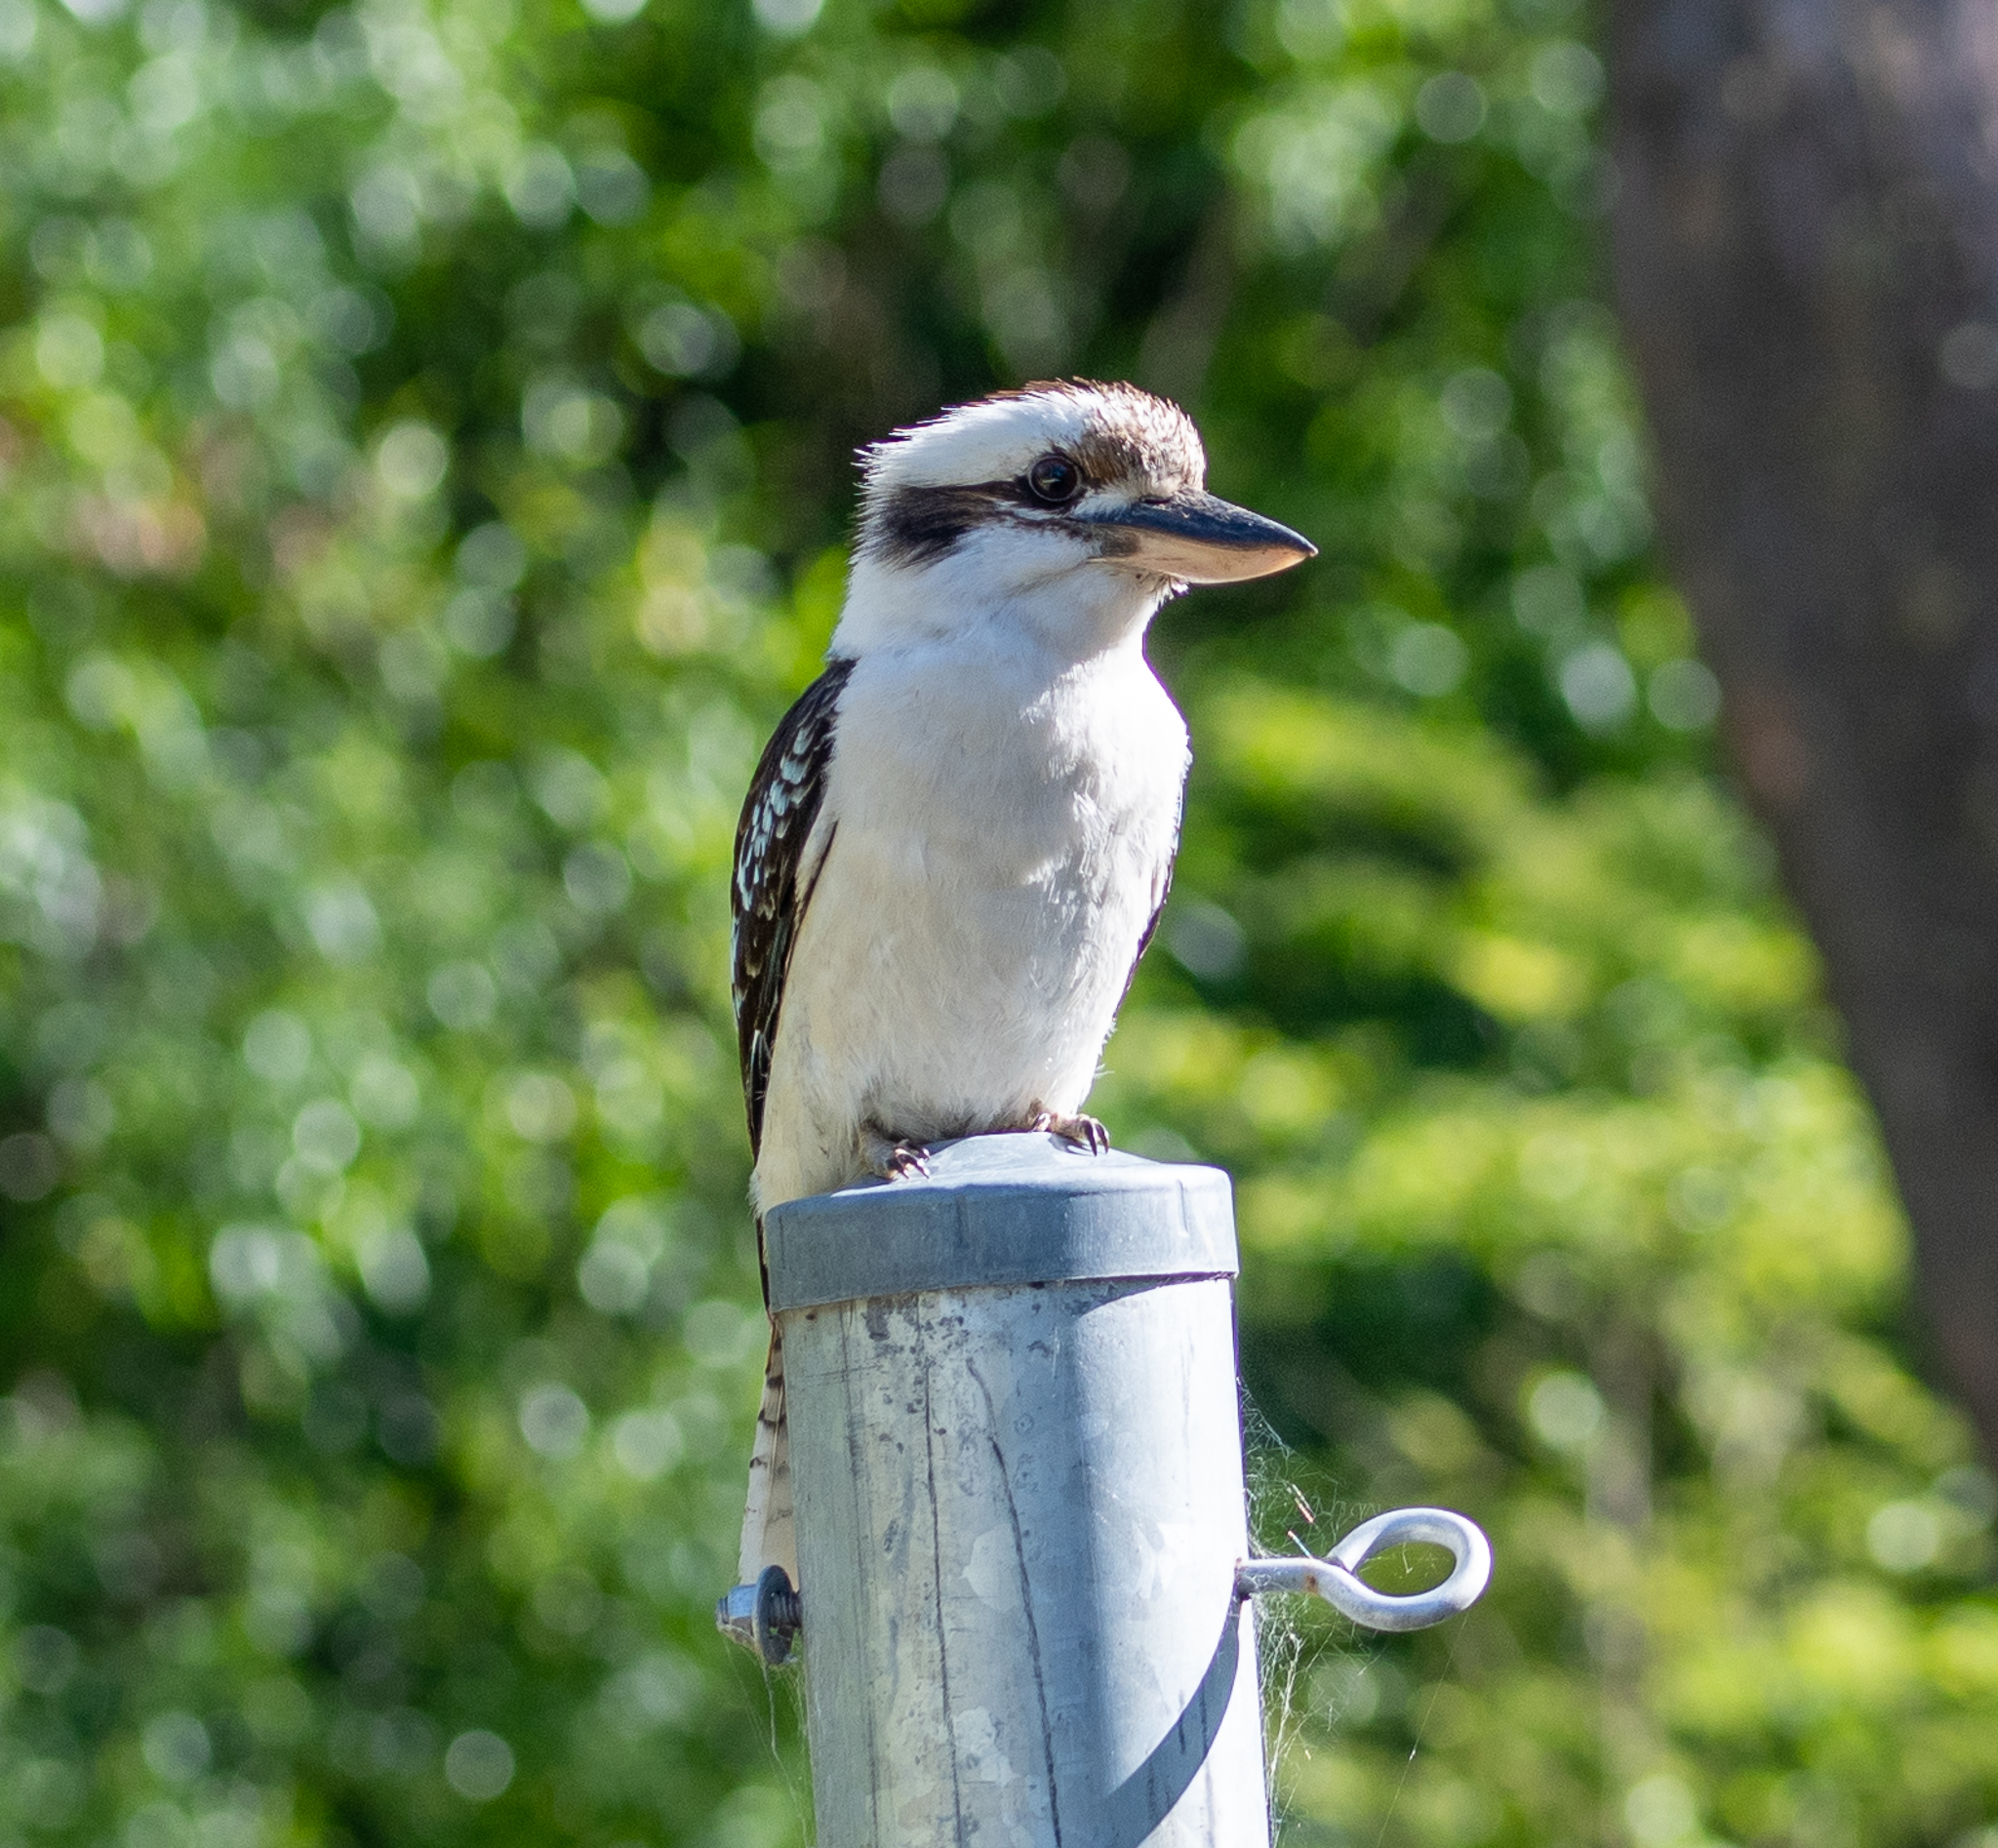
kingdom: Animalia
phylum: Chordata
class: Aves
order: Coraciiformes
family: Alcedinidae
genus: Dacelo
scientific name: Dacelo novaeguineae
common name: Laughing kookaburra
